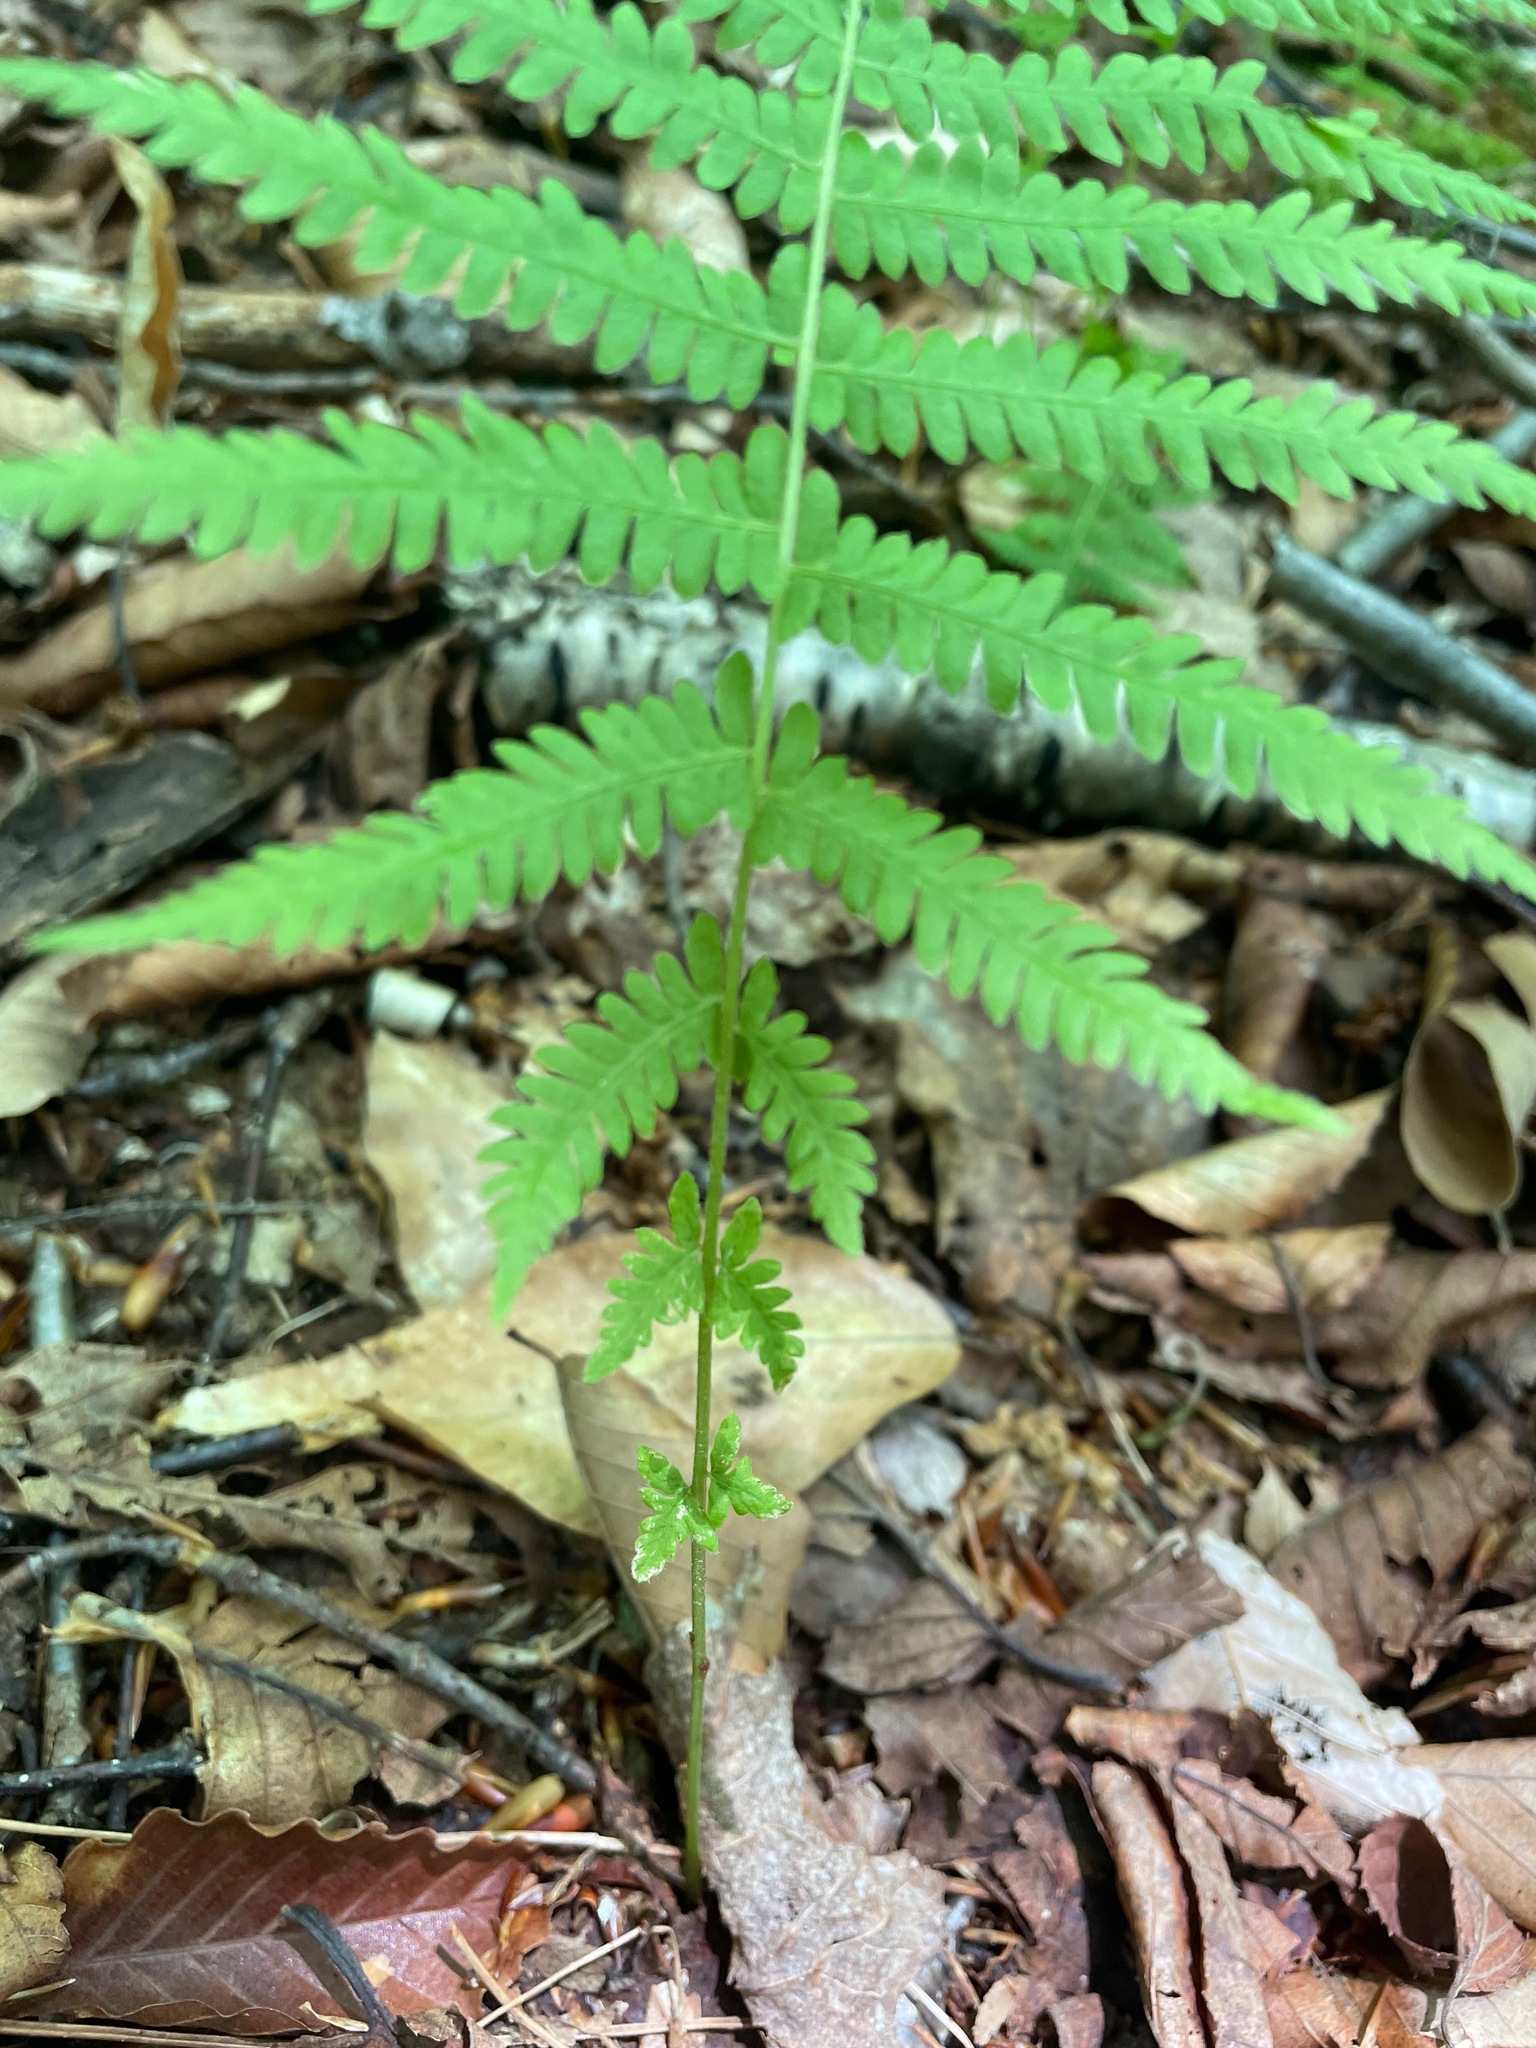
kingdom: Plantae
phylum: Tracheophyta
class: Polypodiopsida
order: Polypodiales
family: Thelypteridaceae
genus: Amauropelta
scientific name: Amauropelta noveboracensis
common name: New york fern
